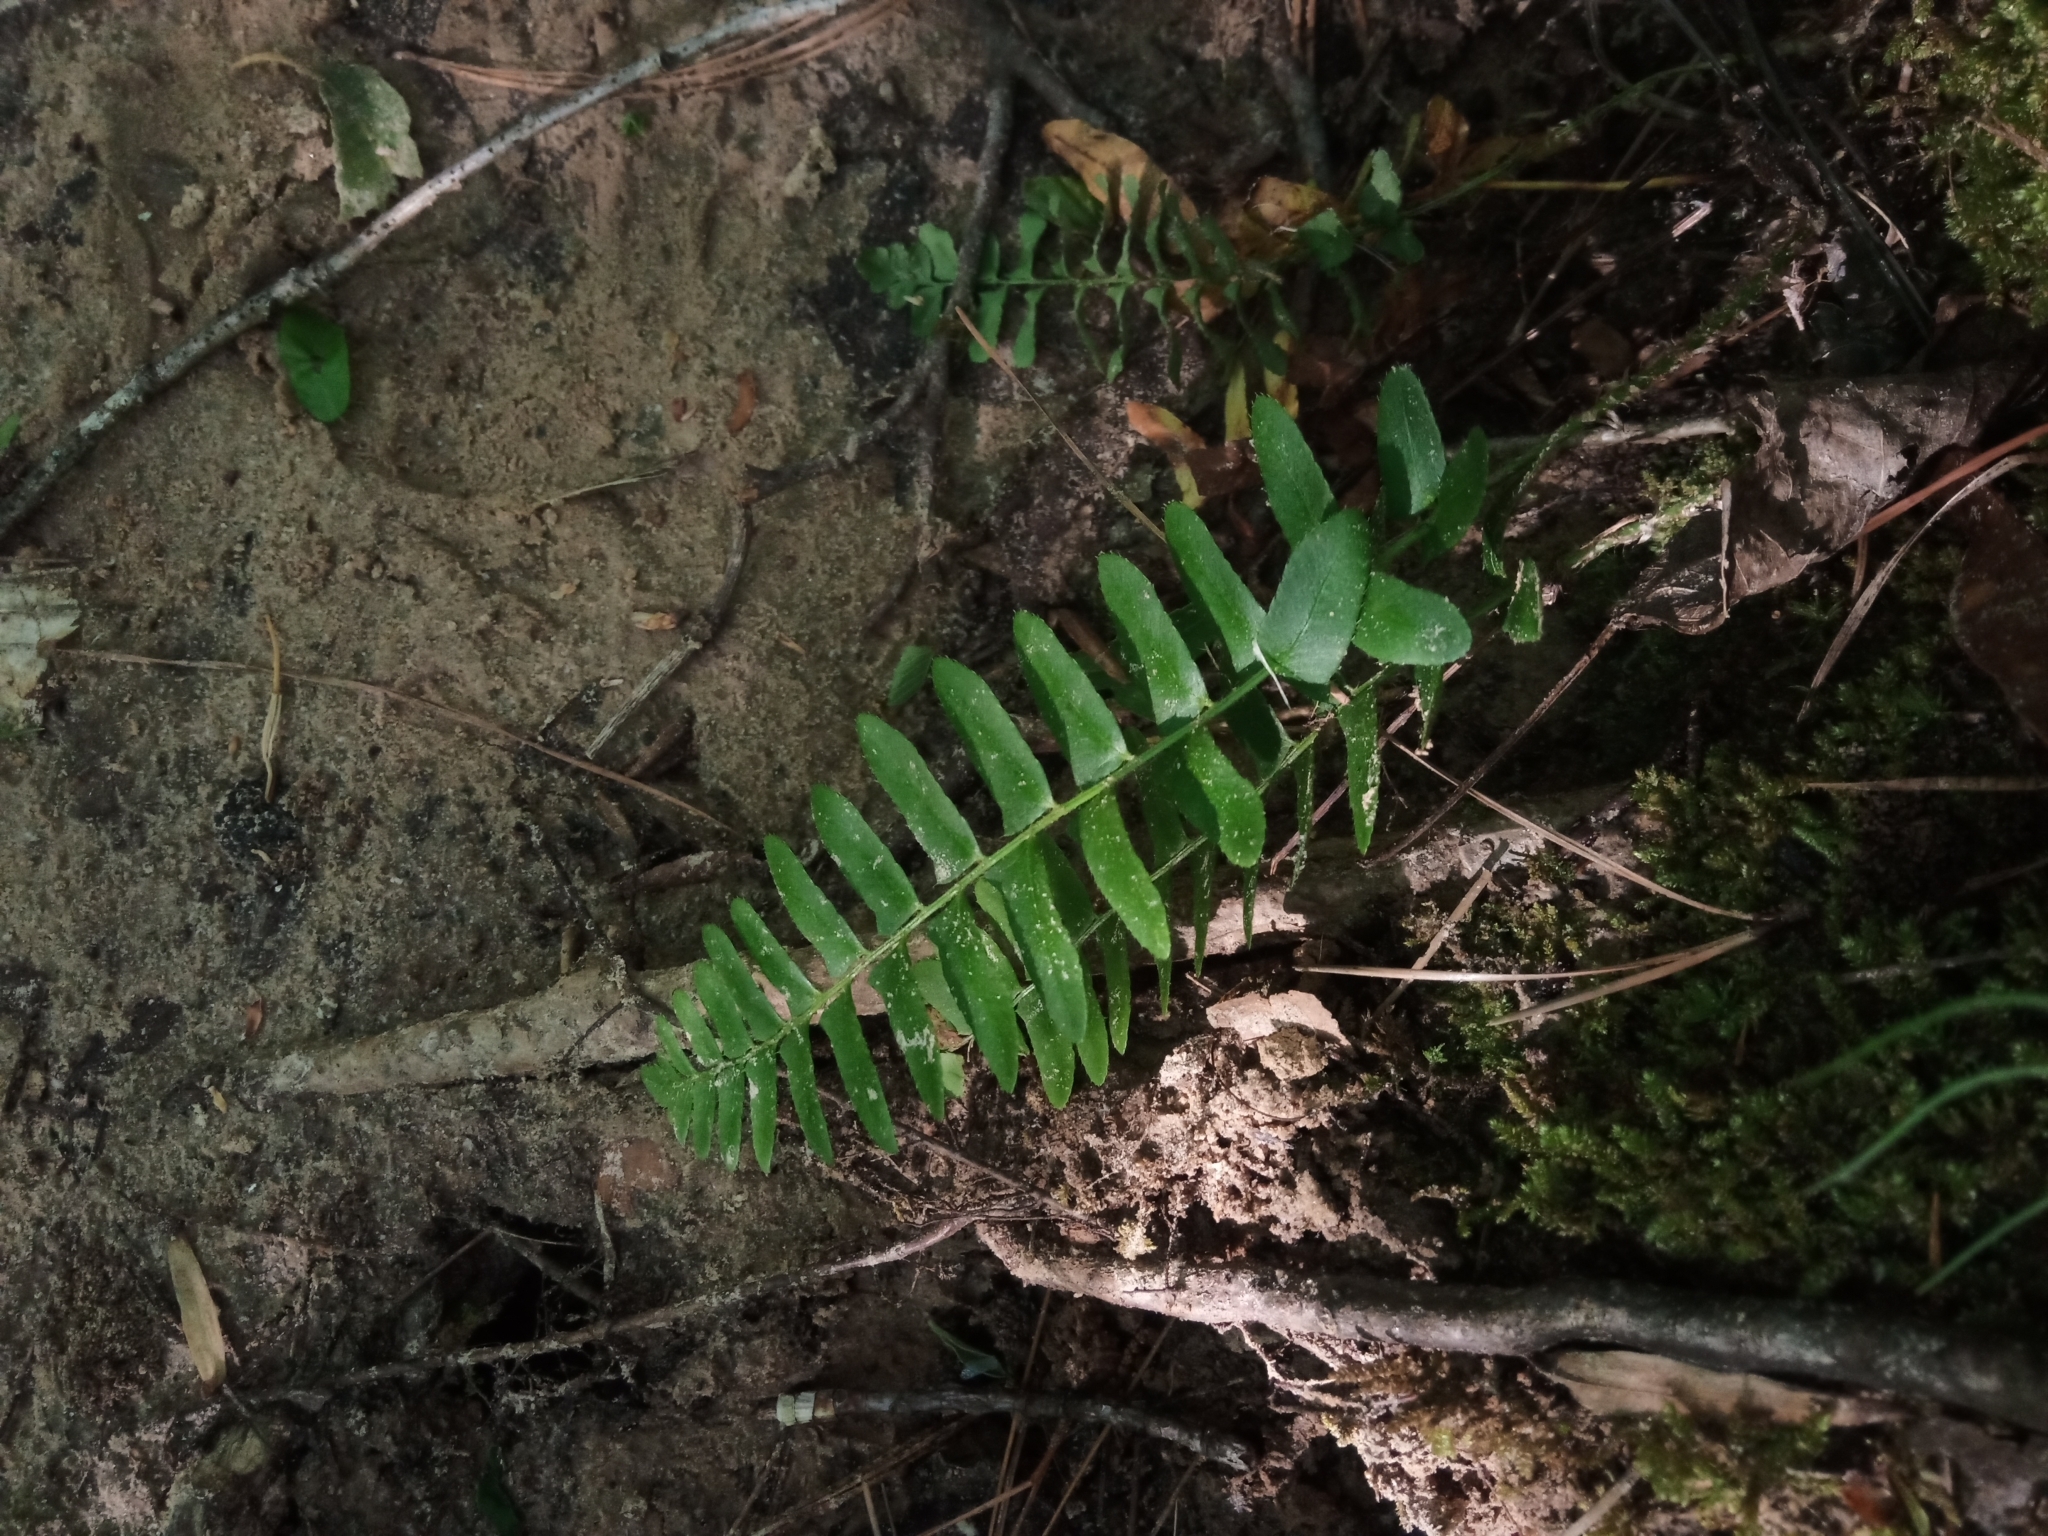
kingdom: Plantae
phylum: Tracheophyta
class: Polypodiopsida
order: Polypodiales
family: Dryopteridaceae
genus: Polystichum
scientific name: Polystichum acrostichoides
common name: Christmas fern
